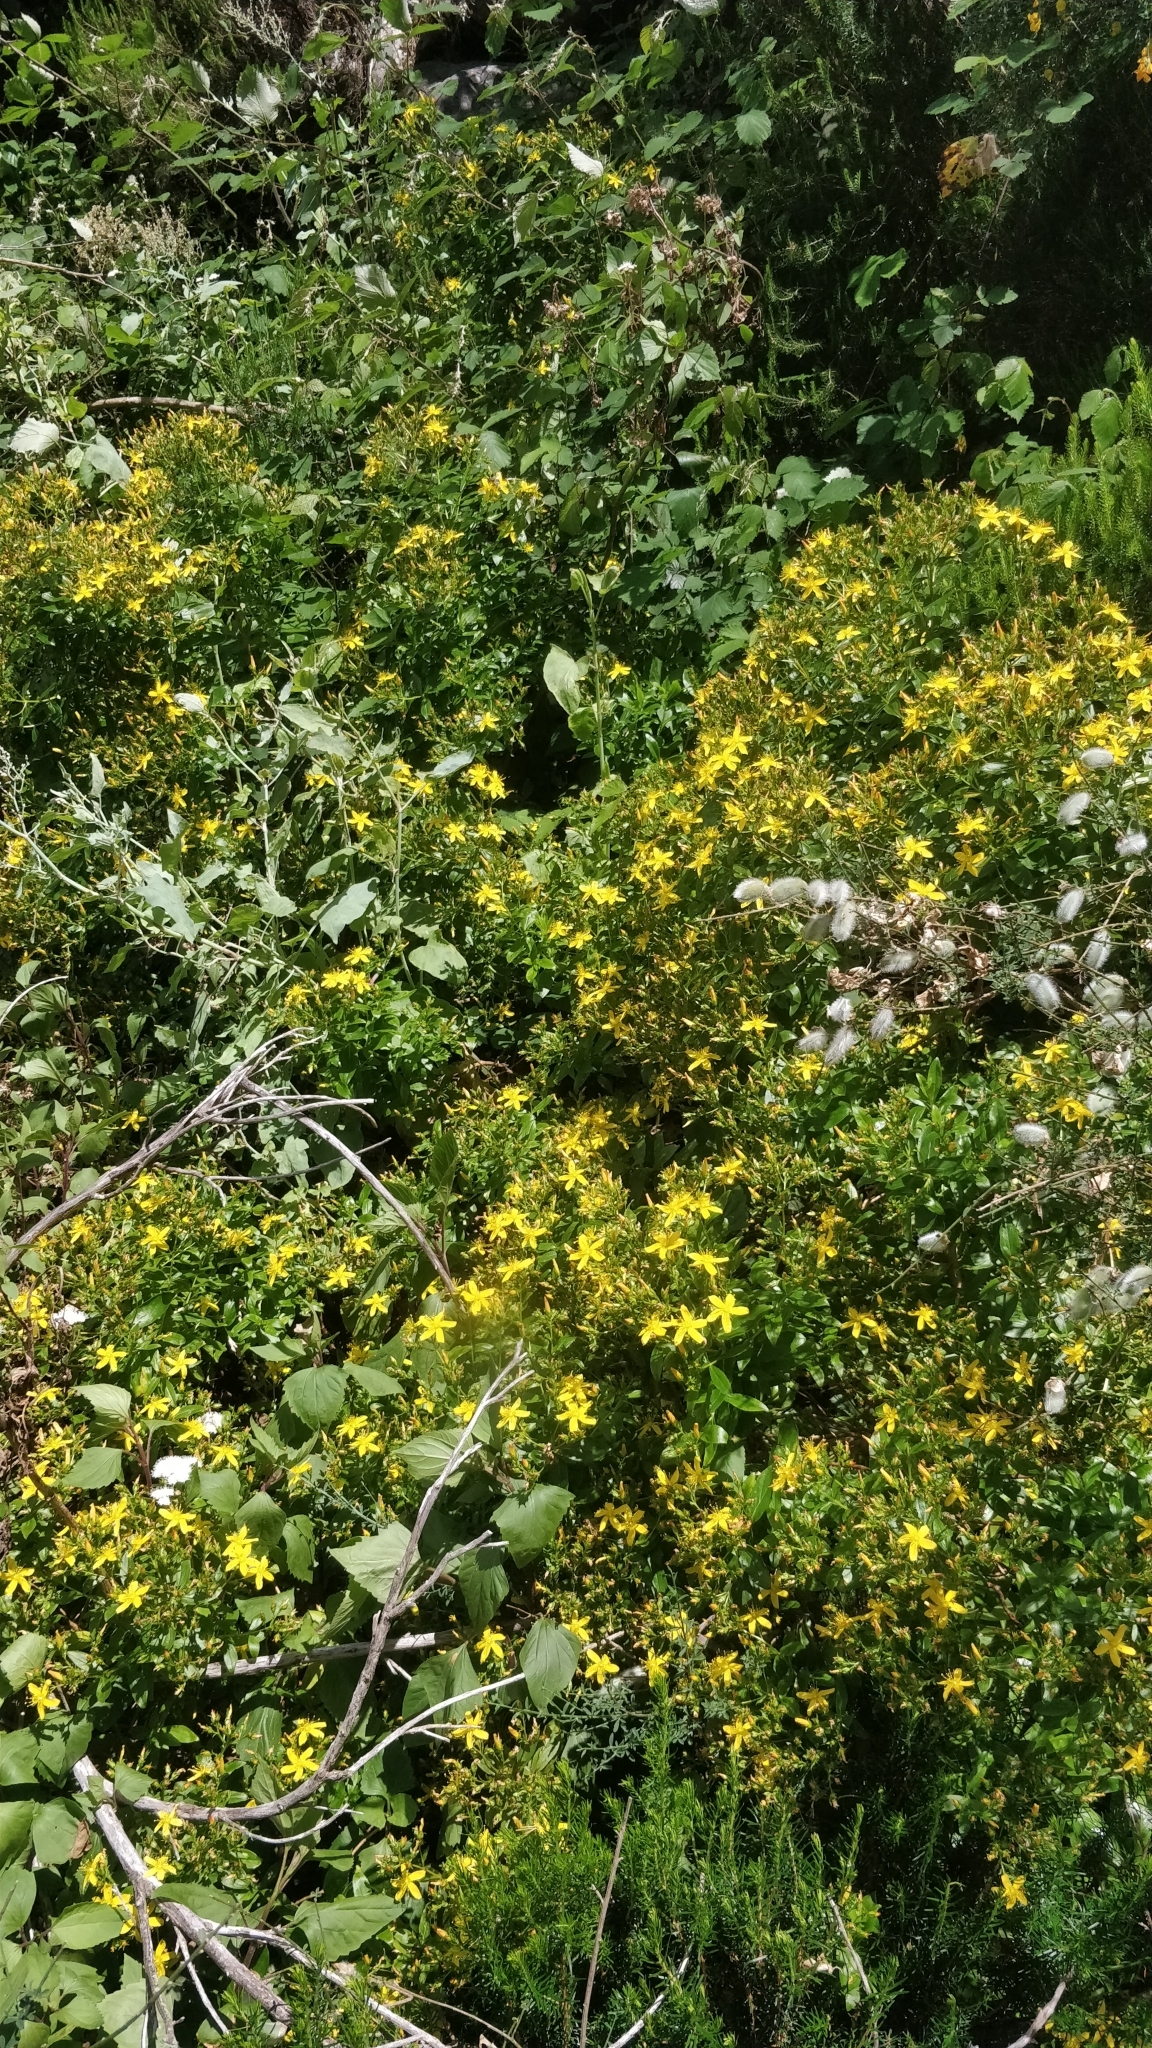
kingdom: Plantae
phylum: Tracheophyta
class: Magnoliopsida
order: Malpighiales
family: Hypericaceae
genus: Hypericum
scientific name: Hypericum glandulosum
